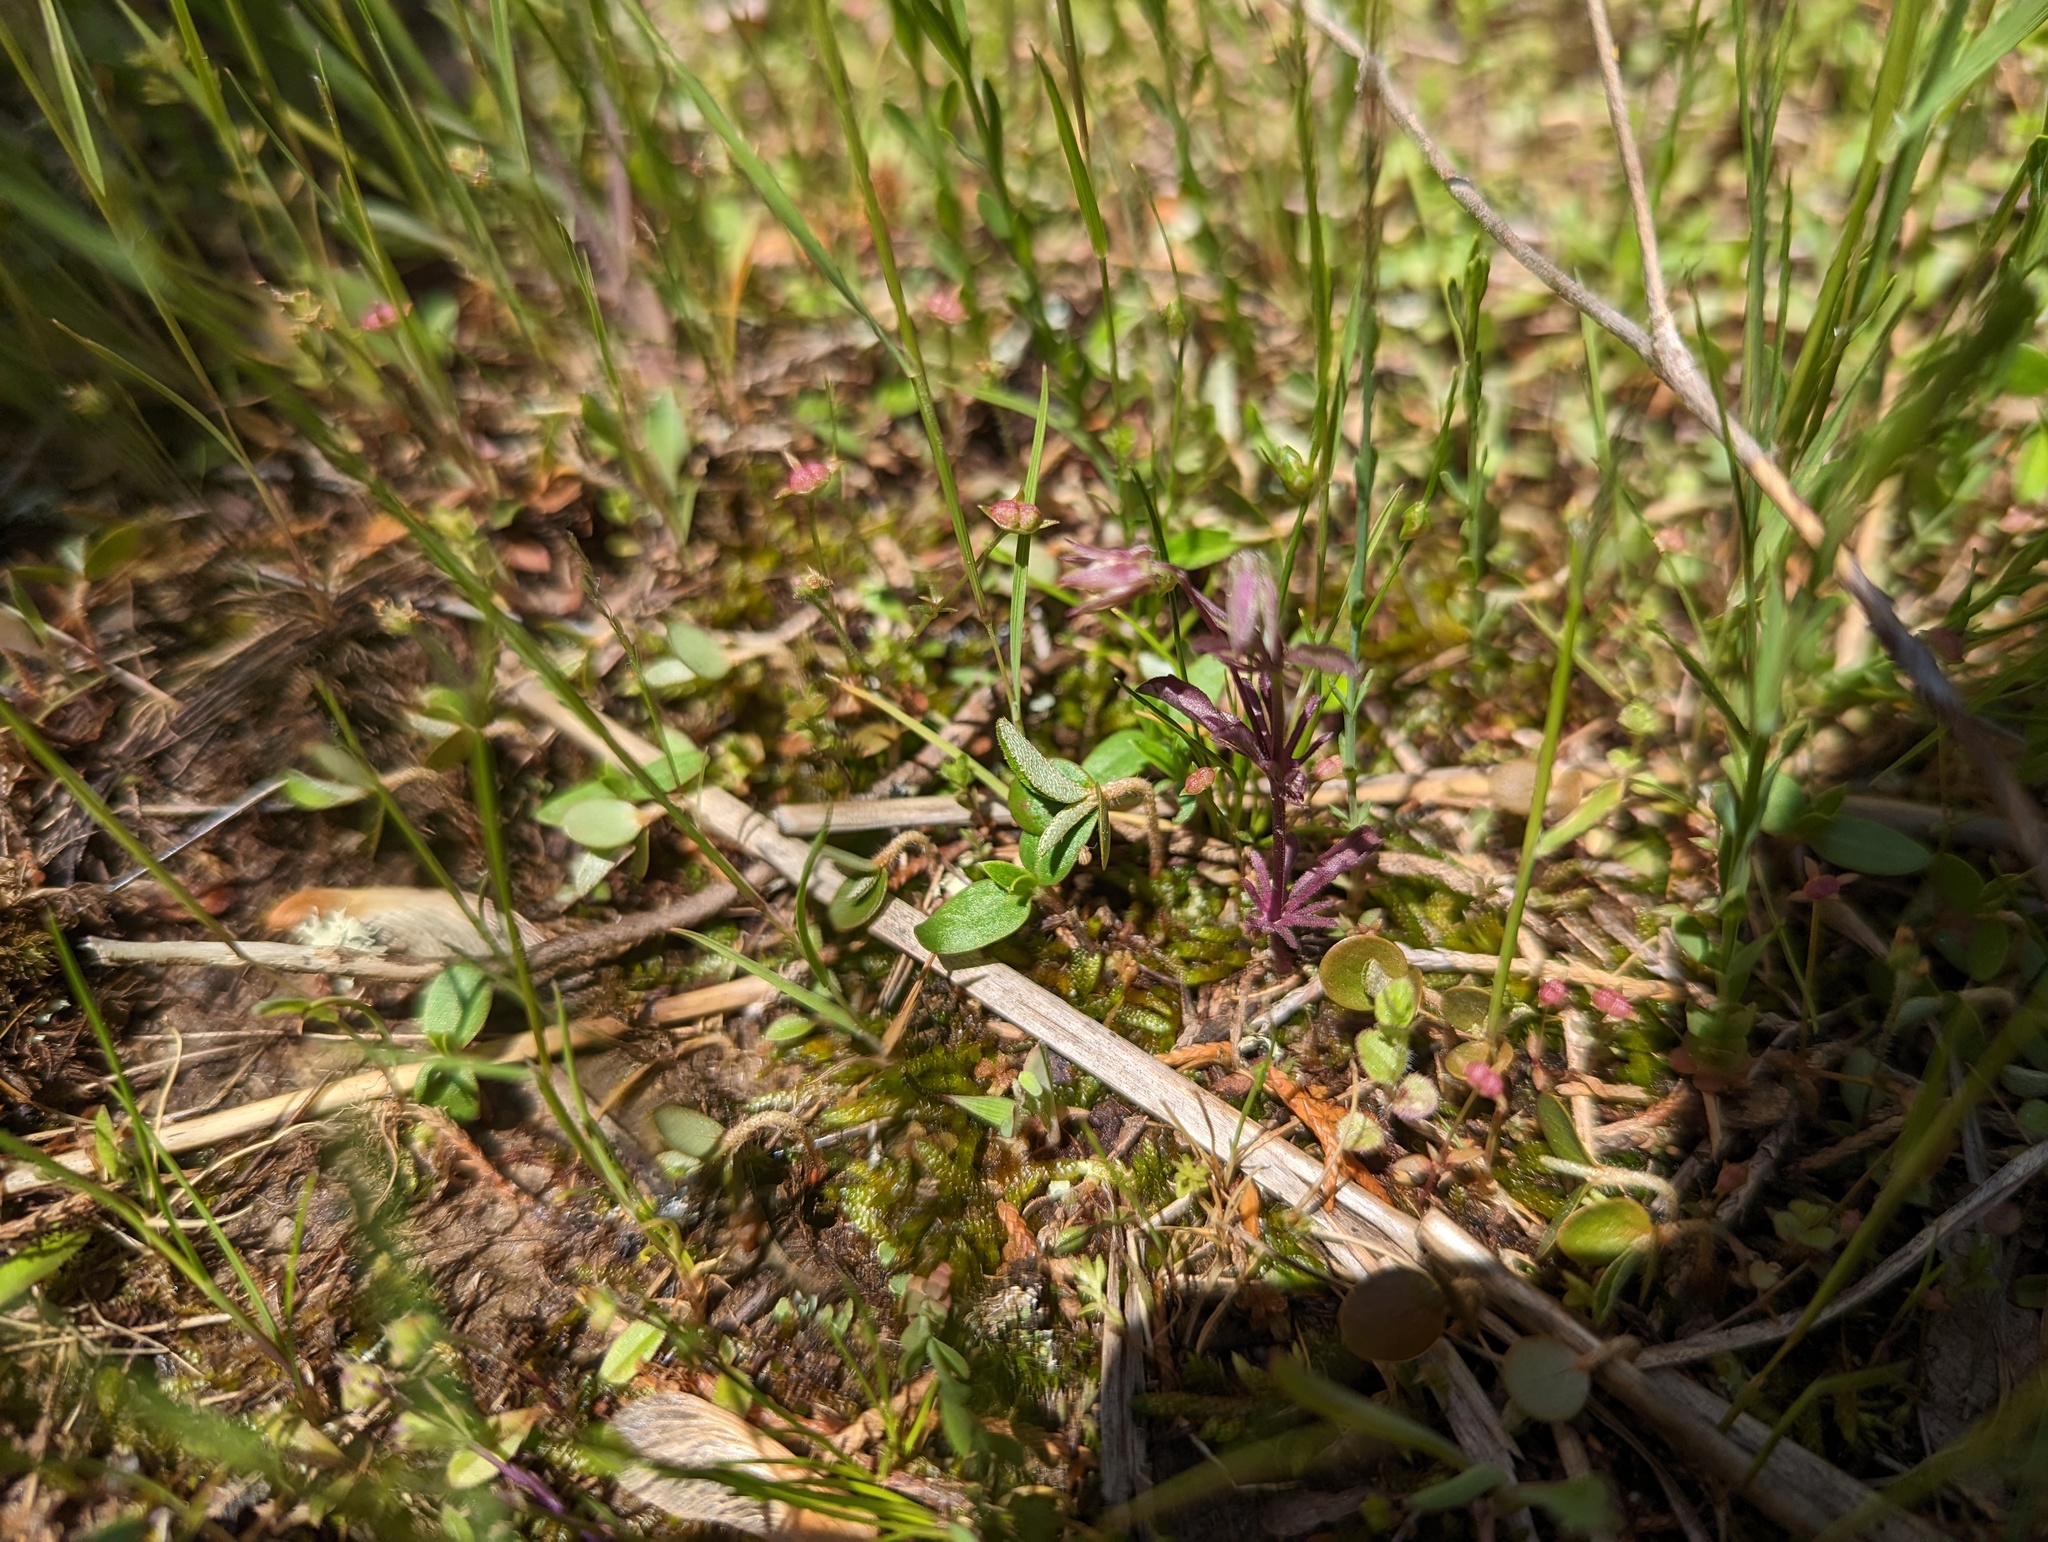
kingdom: Plantae
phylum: Tracheophyta
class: Magnoliopsida
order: Malpighiales
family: Violaceae
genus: Viola
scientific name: Viola rafinesquei
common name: American field pansy
